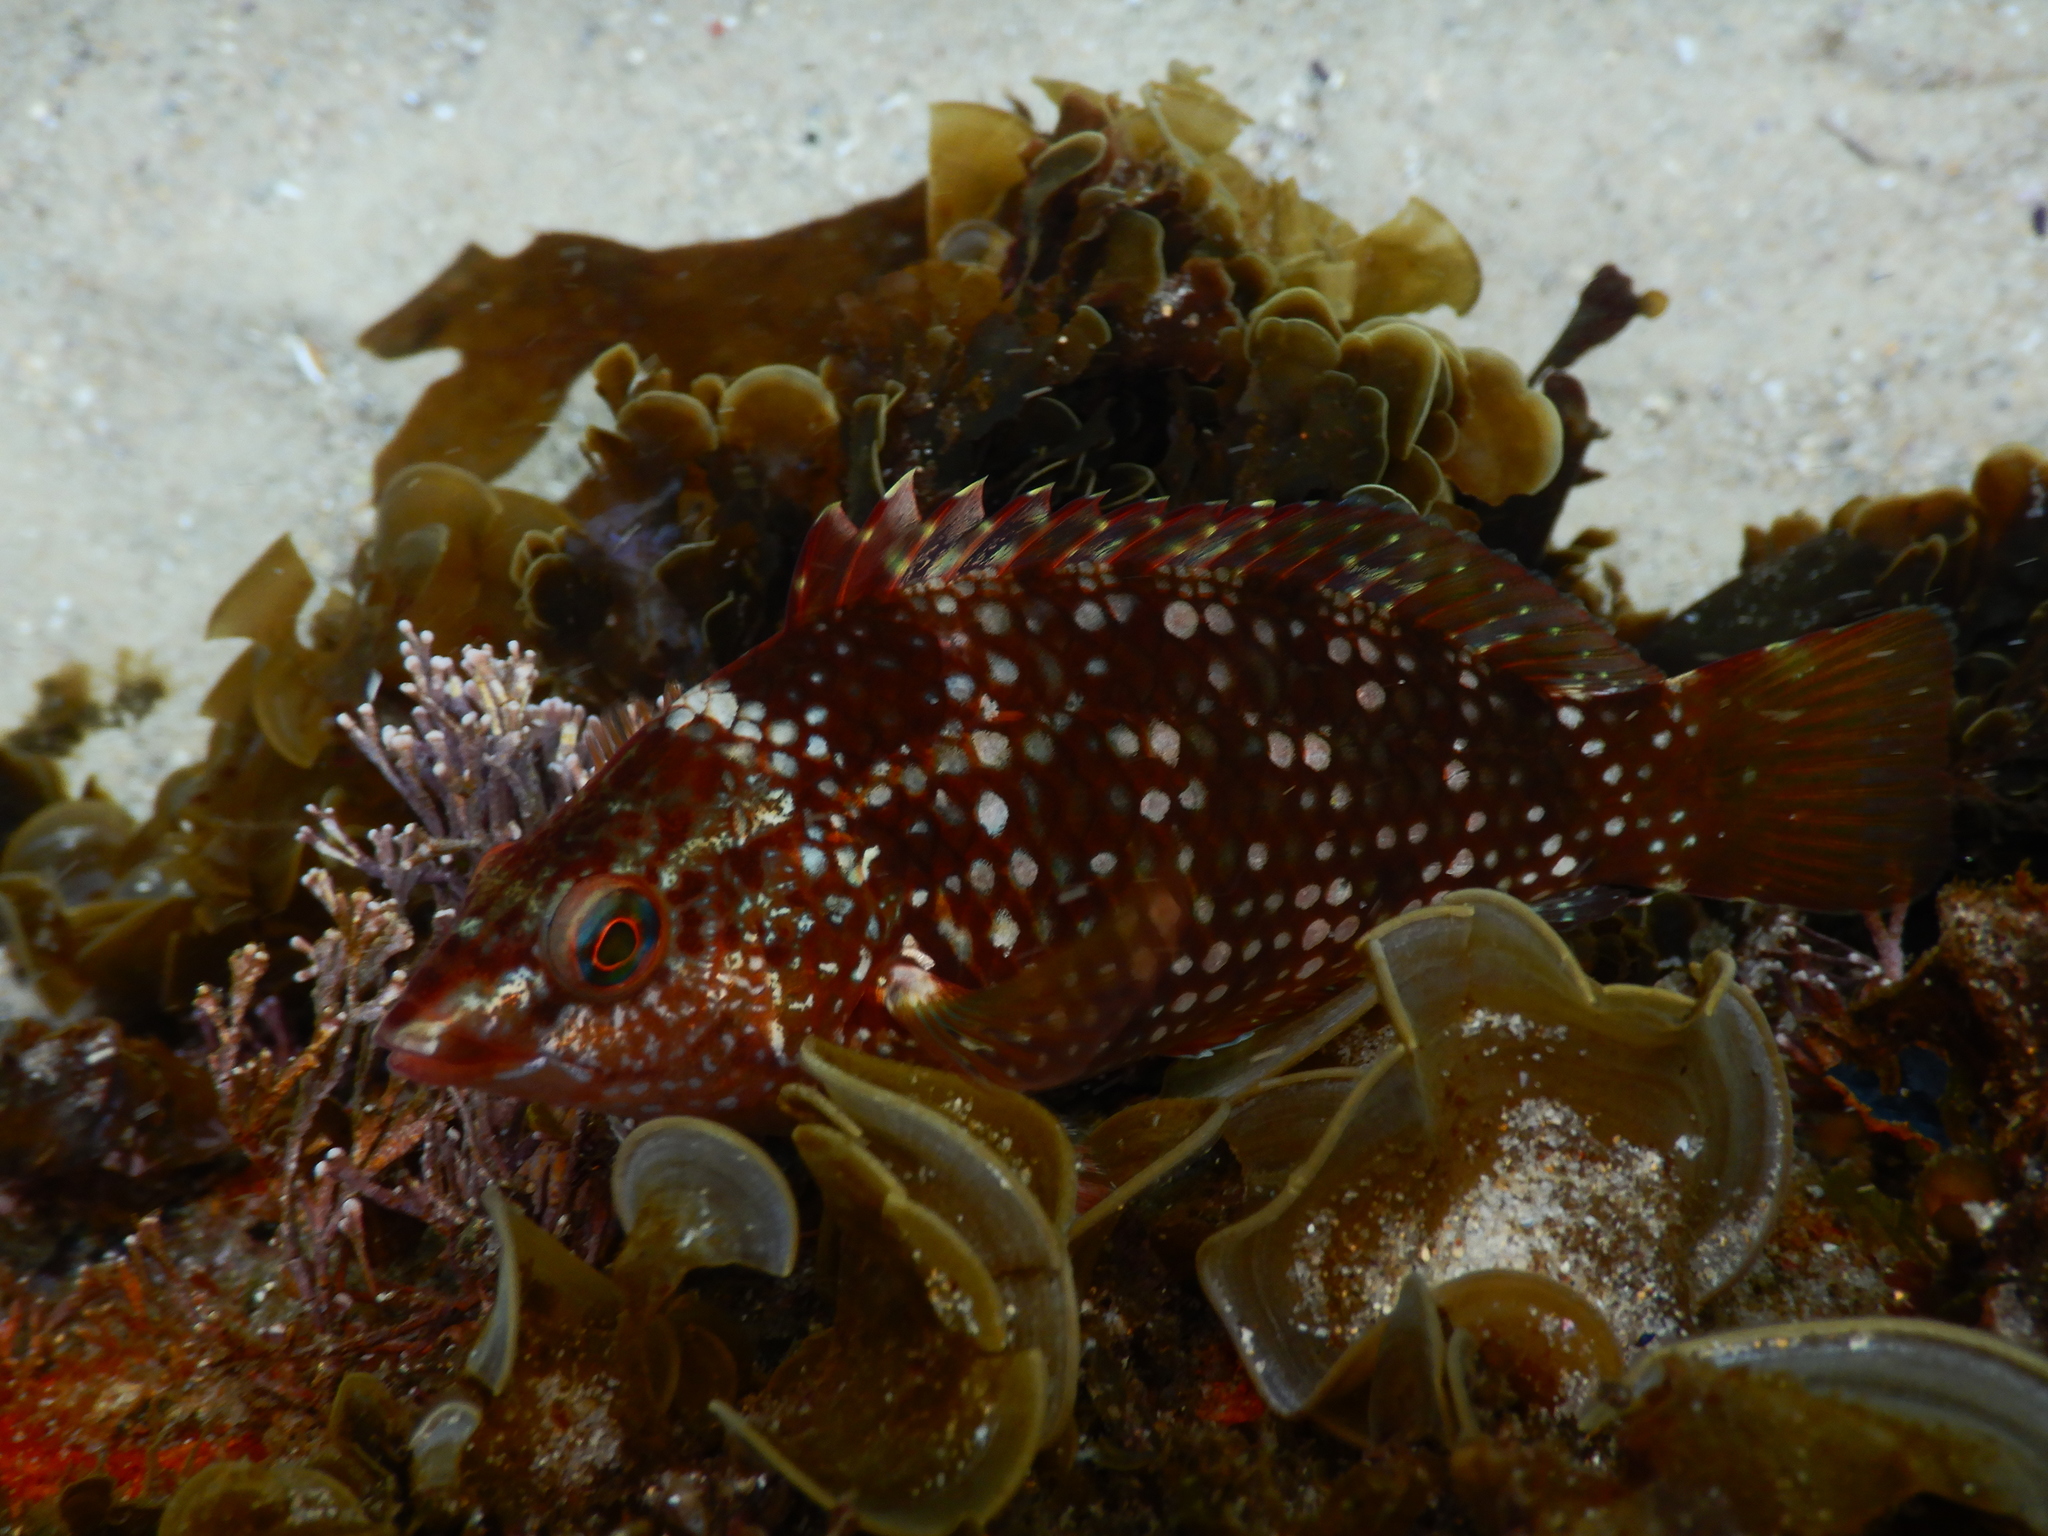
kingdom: Animalia
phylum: Chordata
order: Perciformes
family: Labridae
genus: Notolabrus
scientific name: Notolabrus gymnogenis
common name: Crimson banded wrasse
